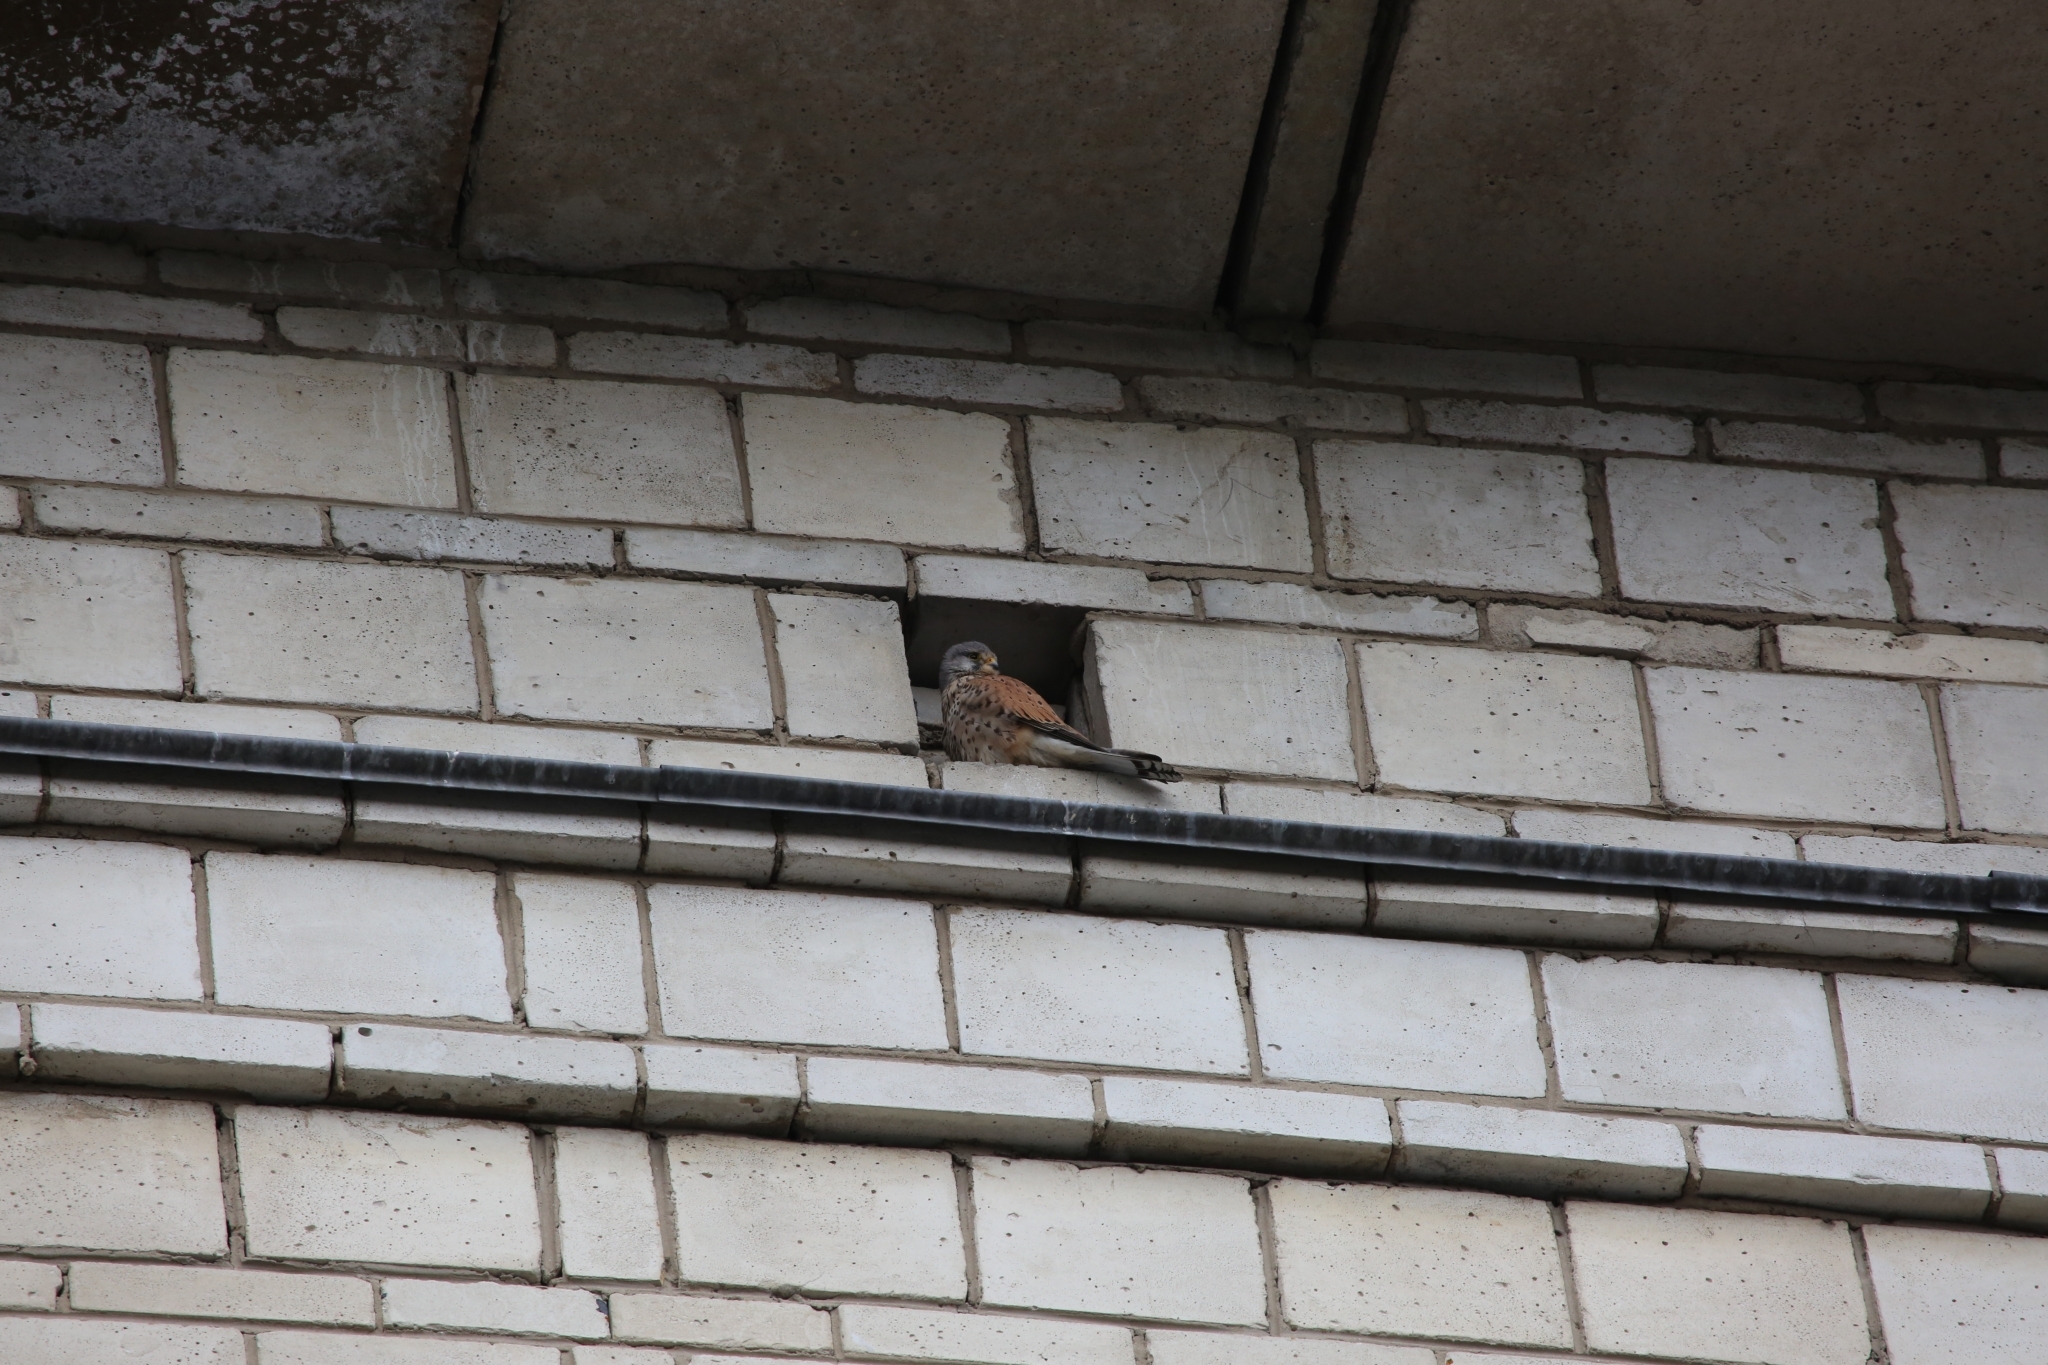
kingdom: Animalia
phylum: Chordata
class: Aves
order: Falconiformes
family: Falconidae
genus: Falco
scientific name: Falco tinnunculus
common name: Common kestrel
